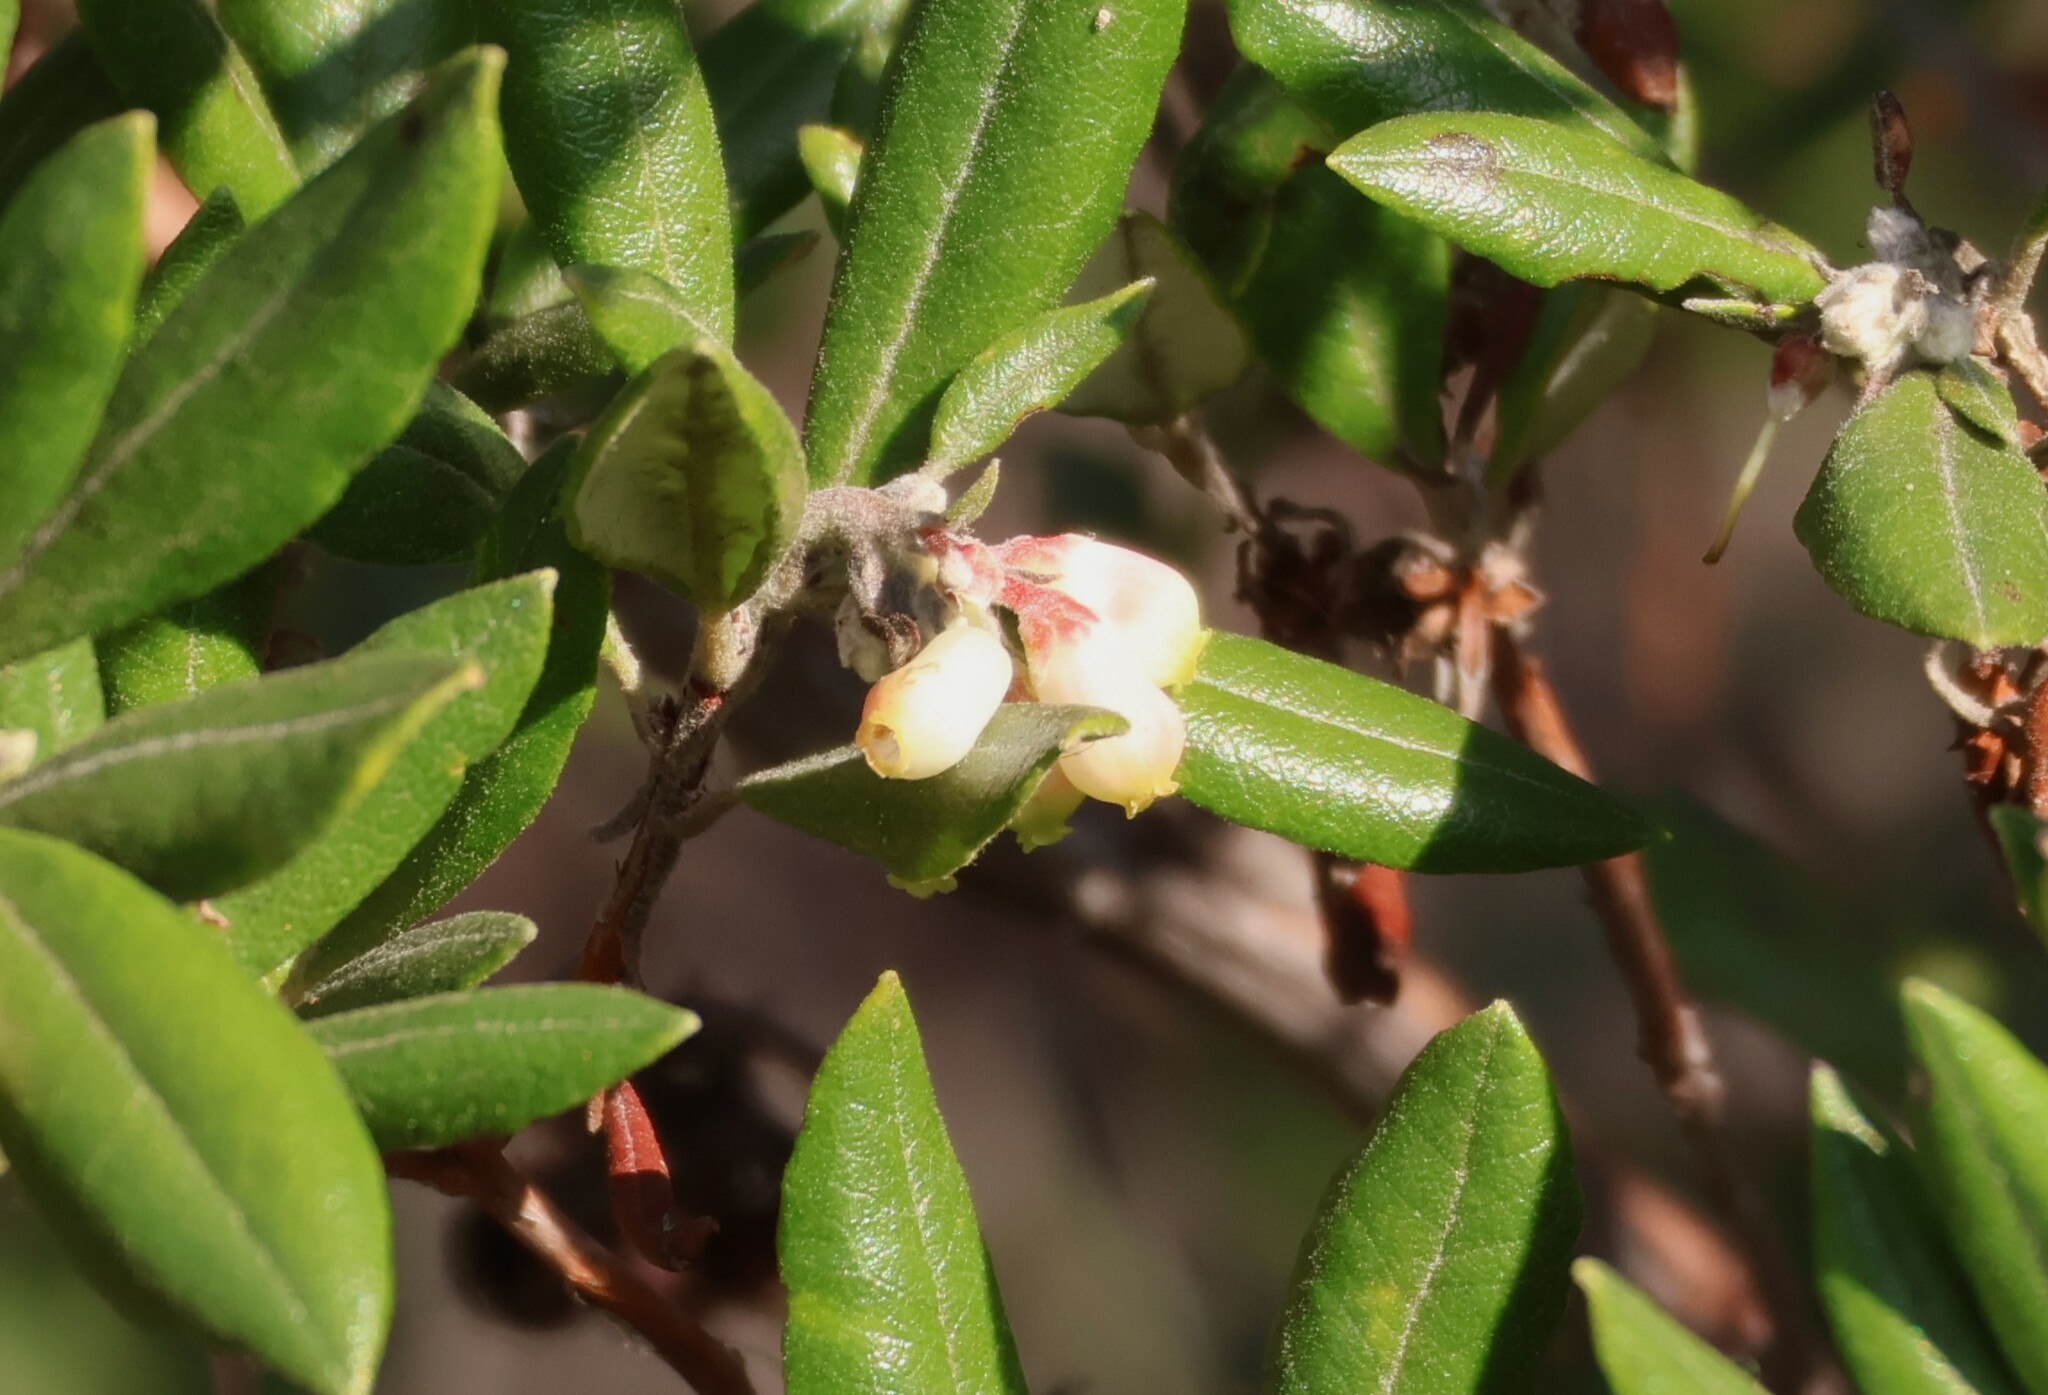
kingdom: Plantae
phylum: Tracheophyta
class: Magnoliopsida
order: Ericales
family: Ericaceae
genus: Arctostaphylos
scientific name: Arctostaphylos bicolor
